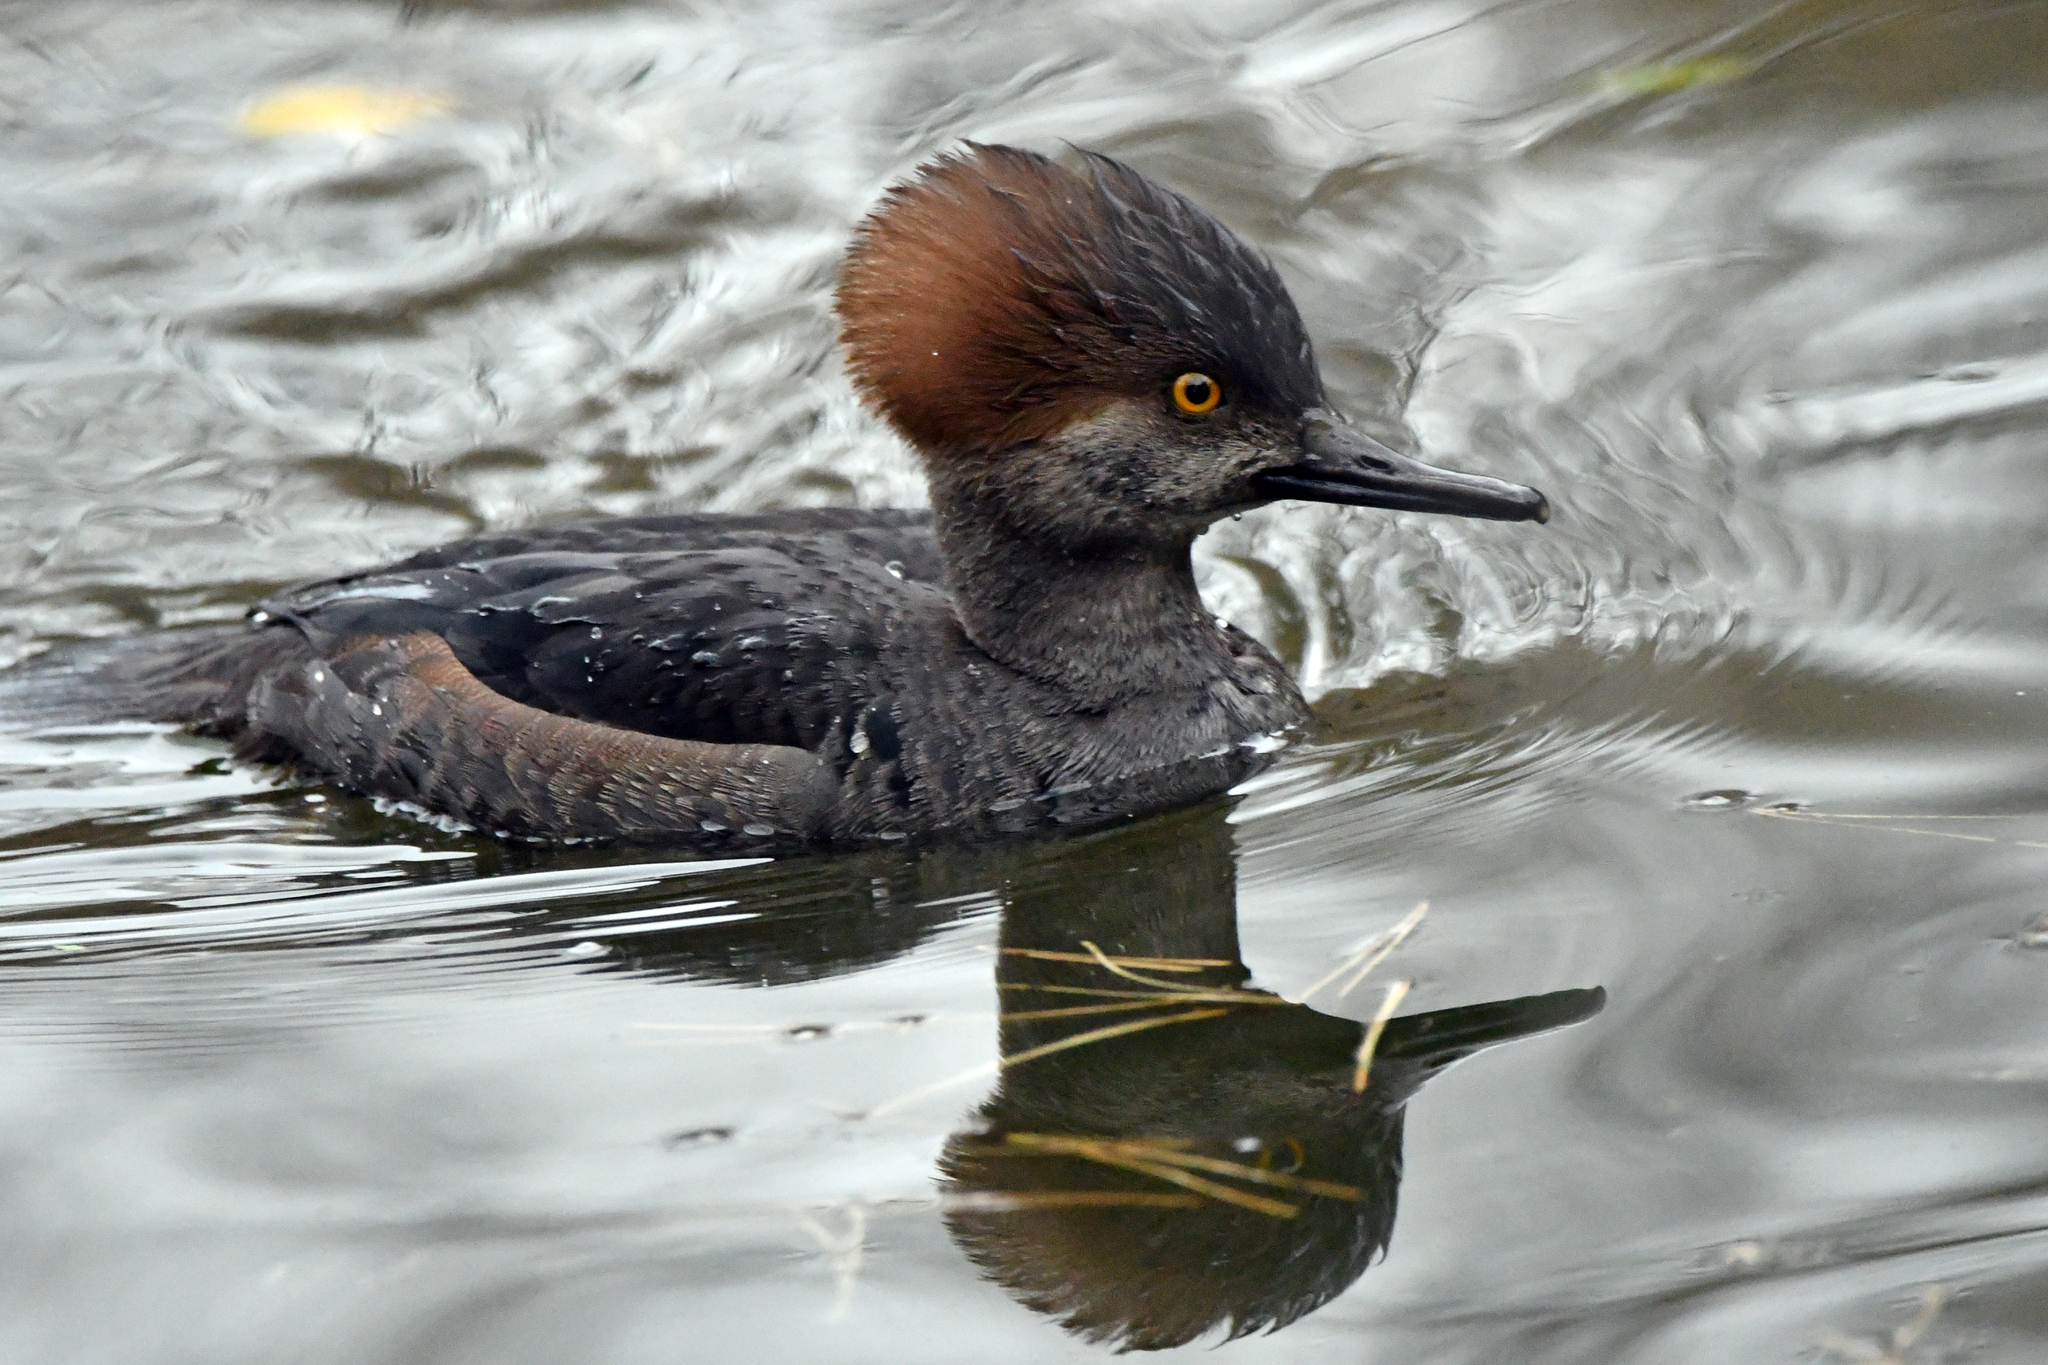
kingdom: Animalia
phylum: Chordata
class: Aves
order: Anseriformes
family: Anatidae
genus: Lophodytes
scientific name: Lophodytes cucullatus
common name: Hooded merganser
